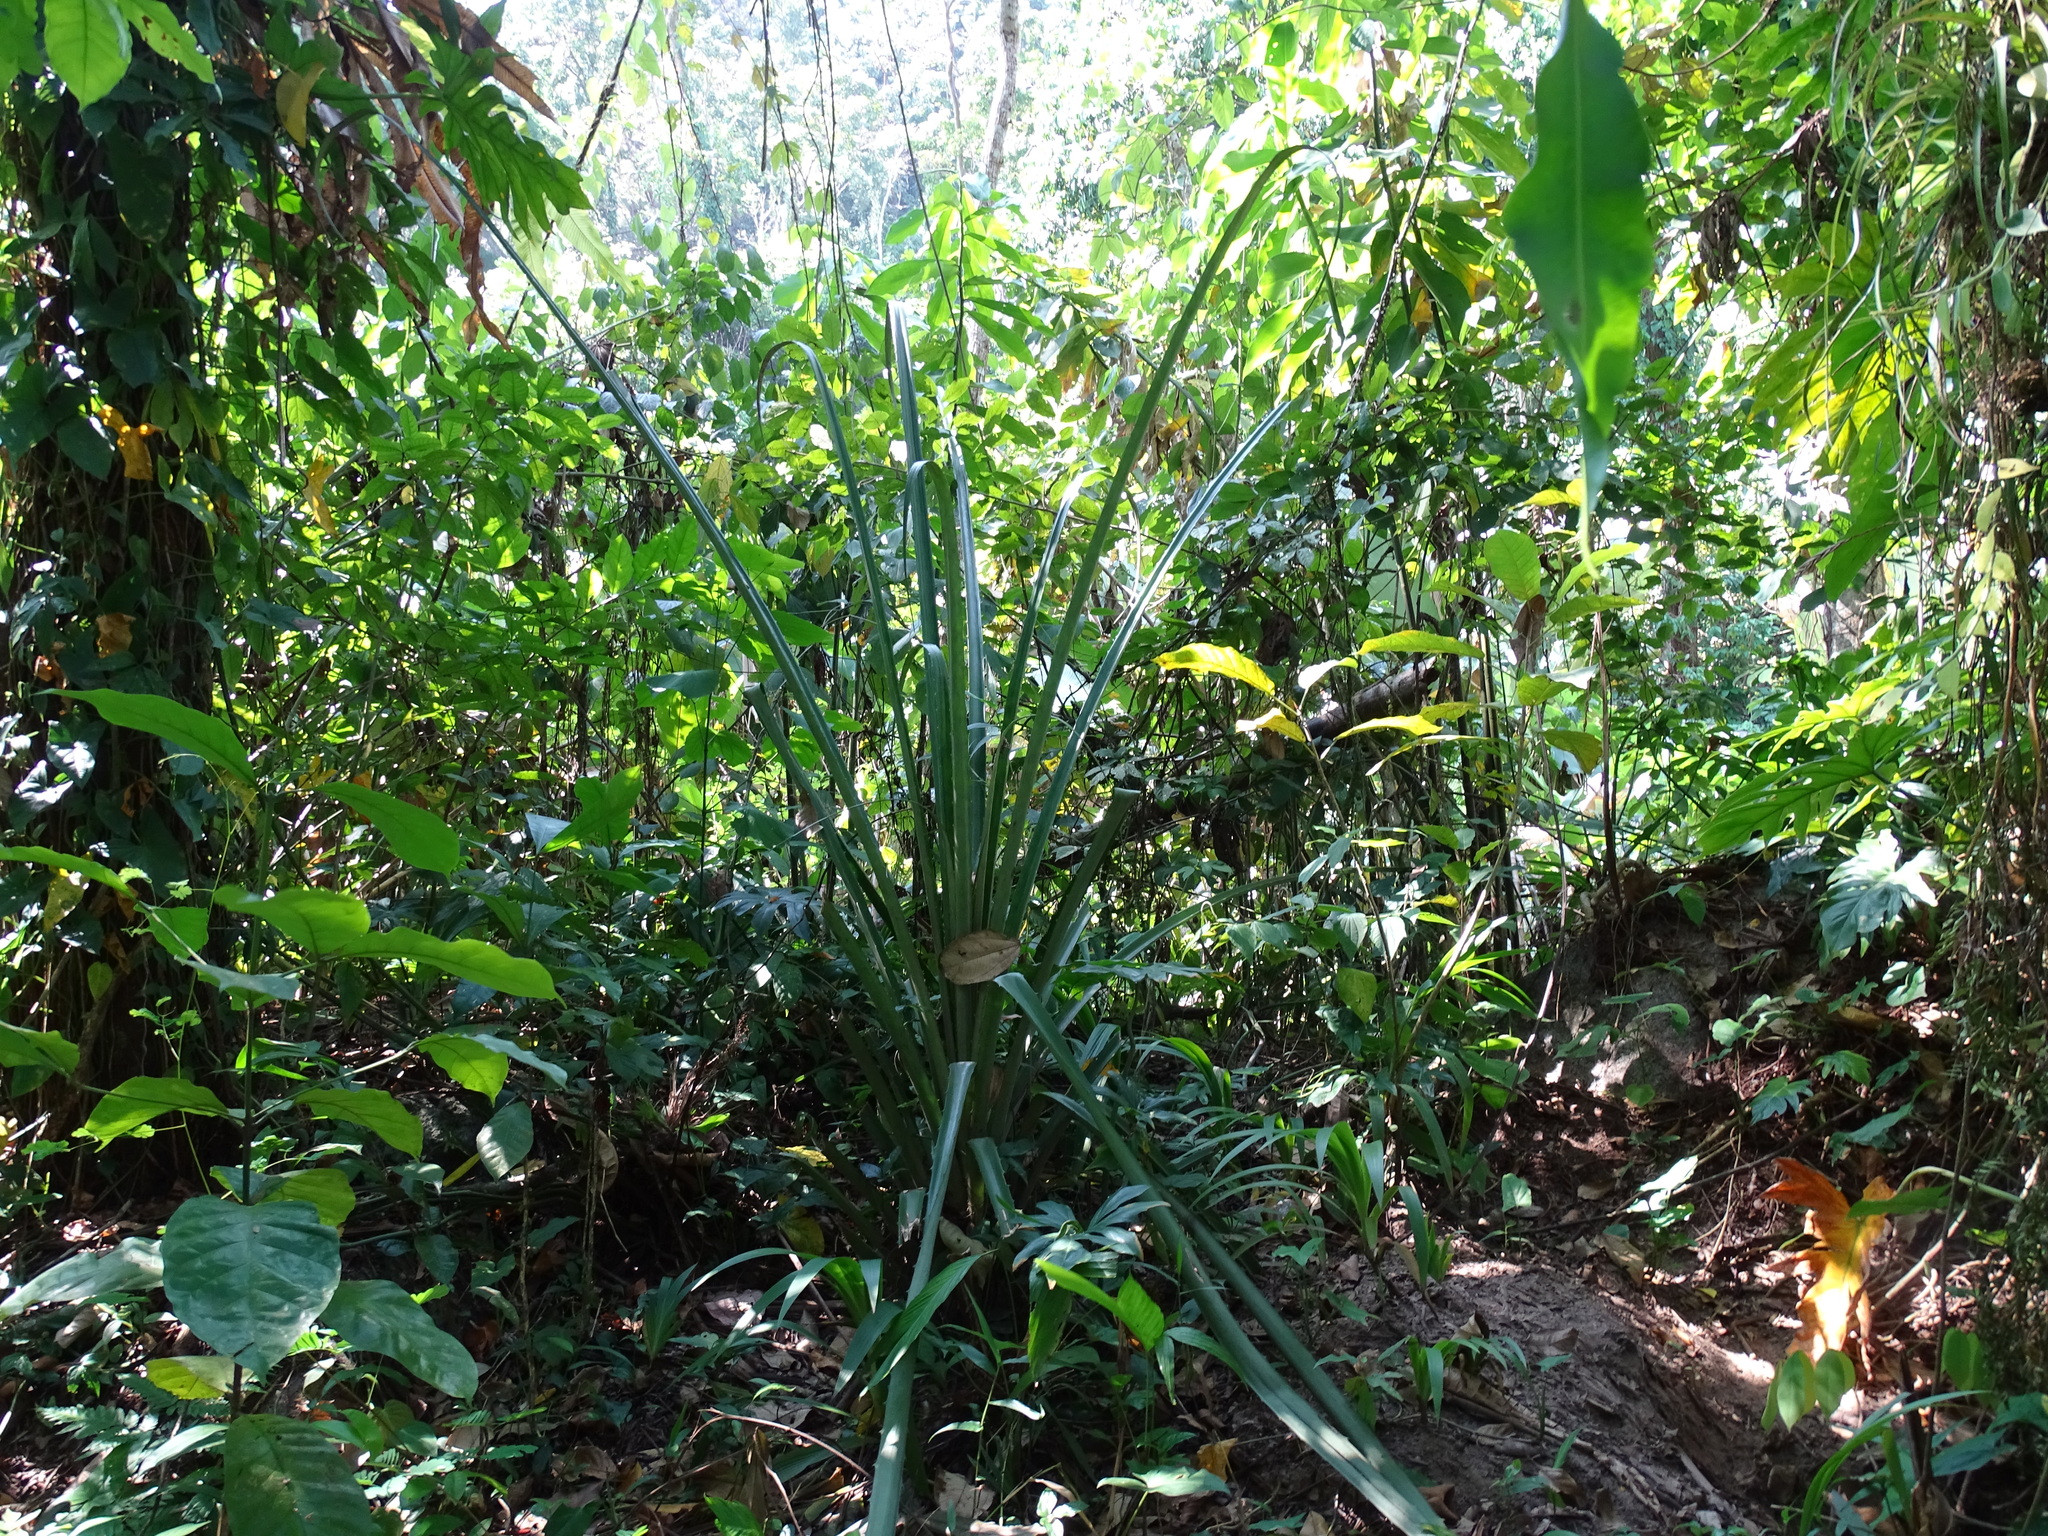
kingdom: Plantae
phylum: Tracheophyta
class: Liliopsida
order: Poales
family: Bromeliaceae
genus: Bromelia
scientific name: Bromelia karatas
